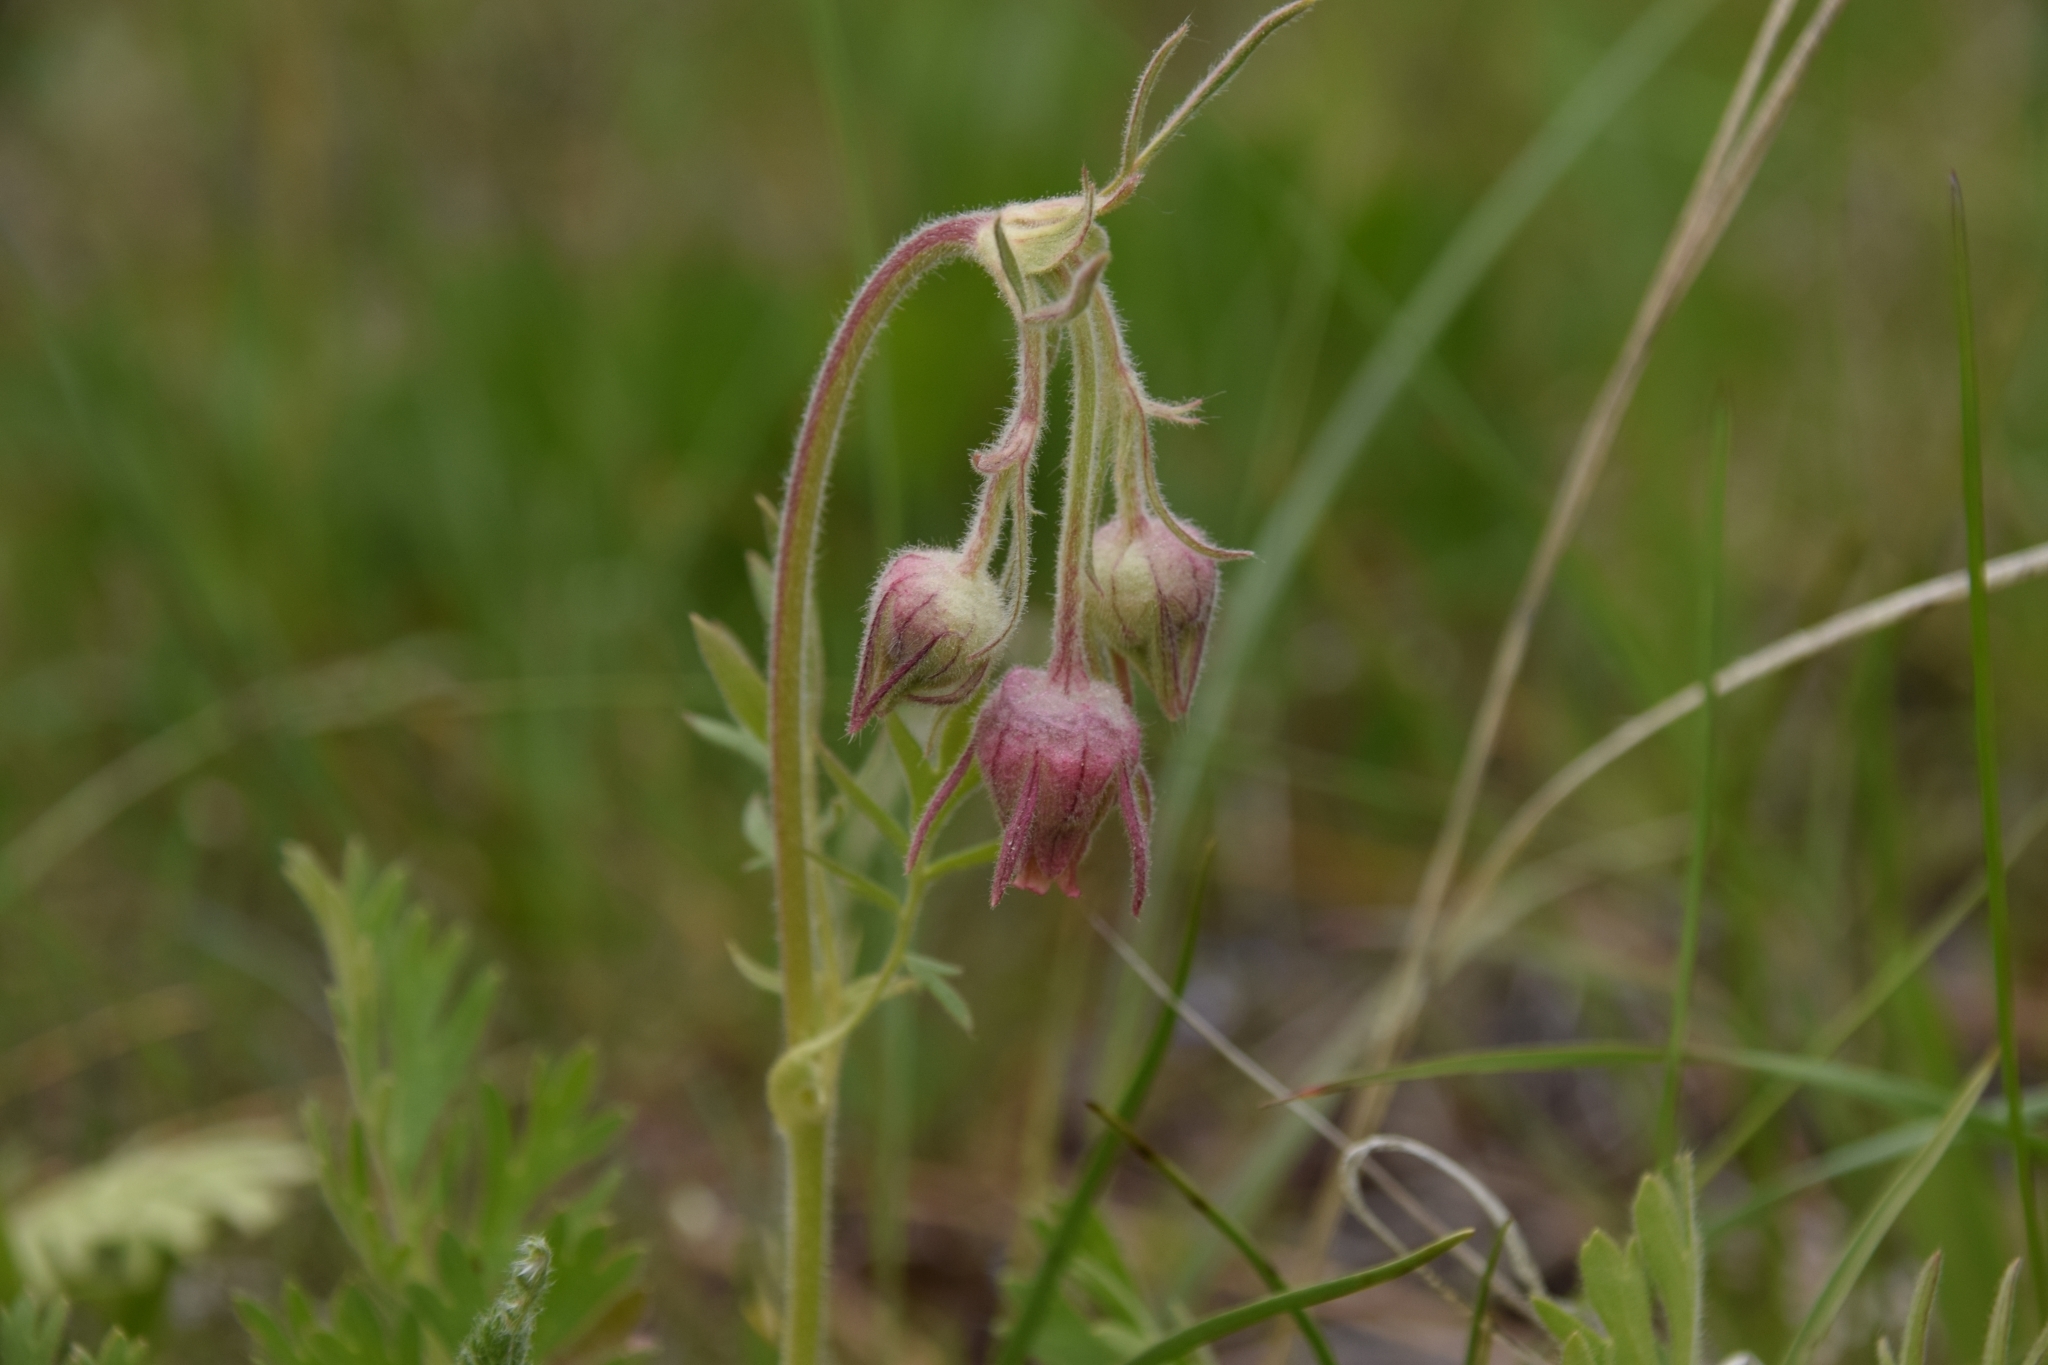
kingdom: Plantae
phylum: Tracheophyta
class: Magnoliopsida
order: Rosales
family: Rosaceae
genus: Geum
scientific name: Geum triflorum
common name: Old man's whiskers
